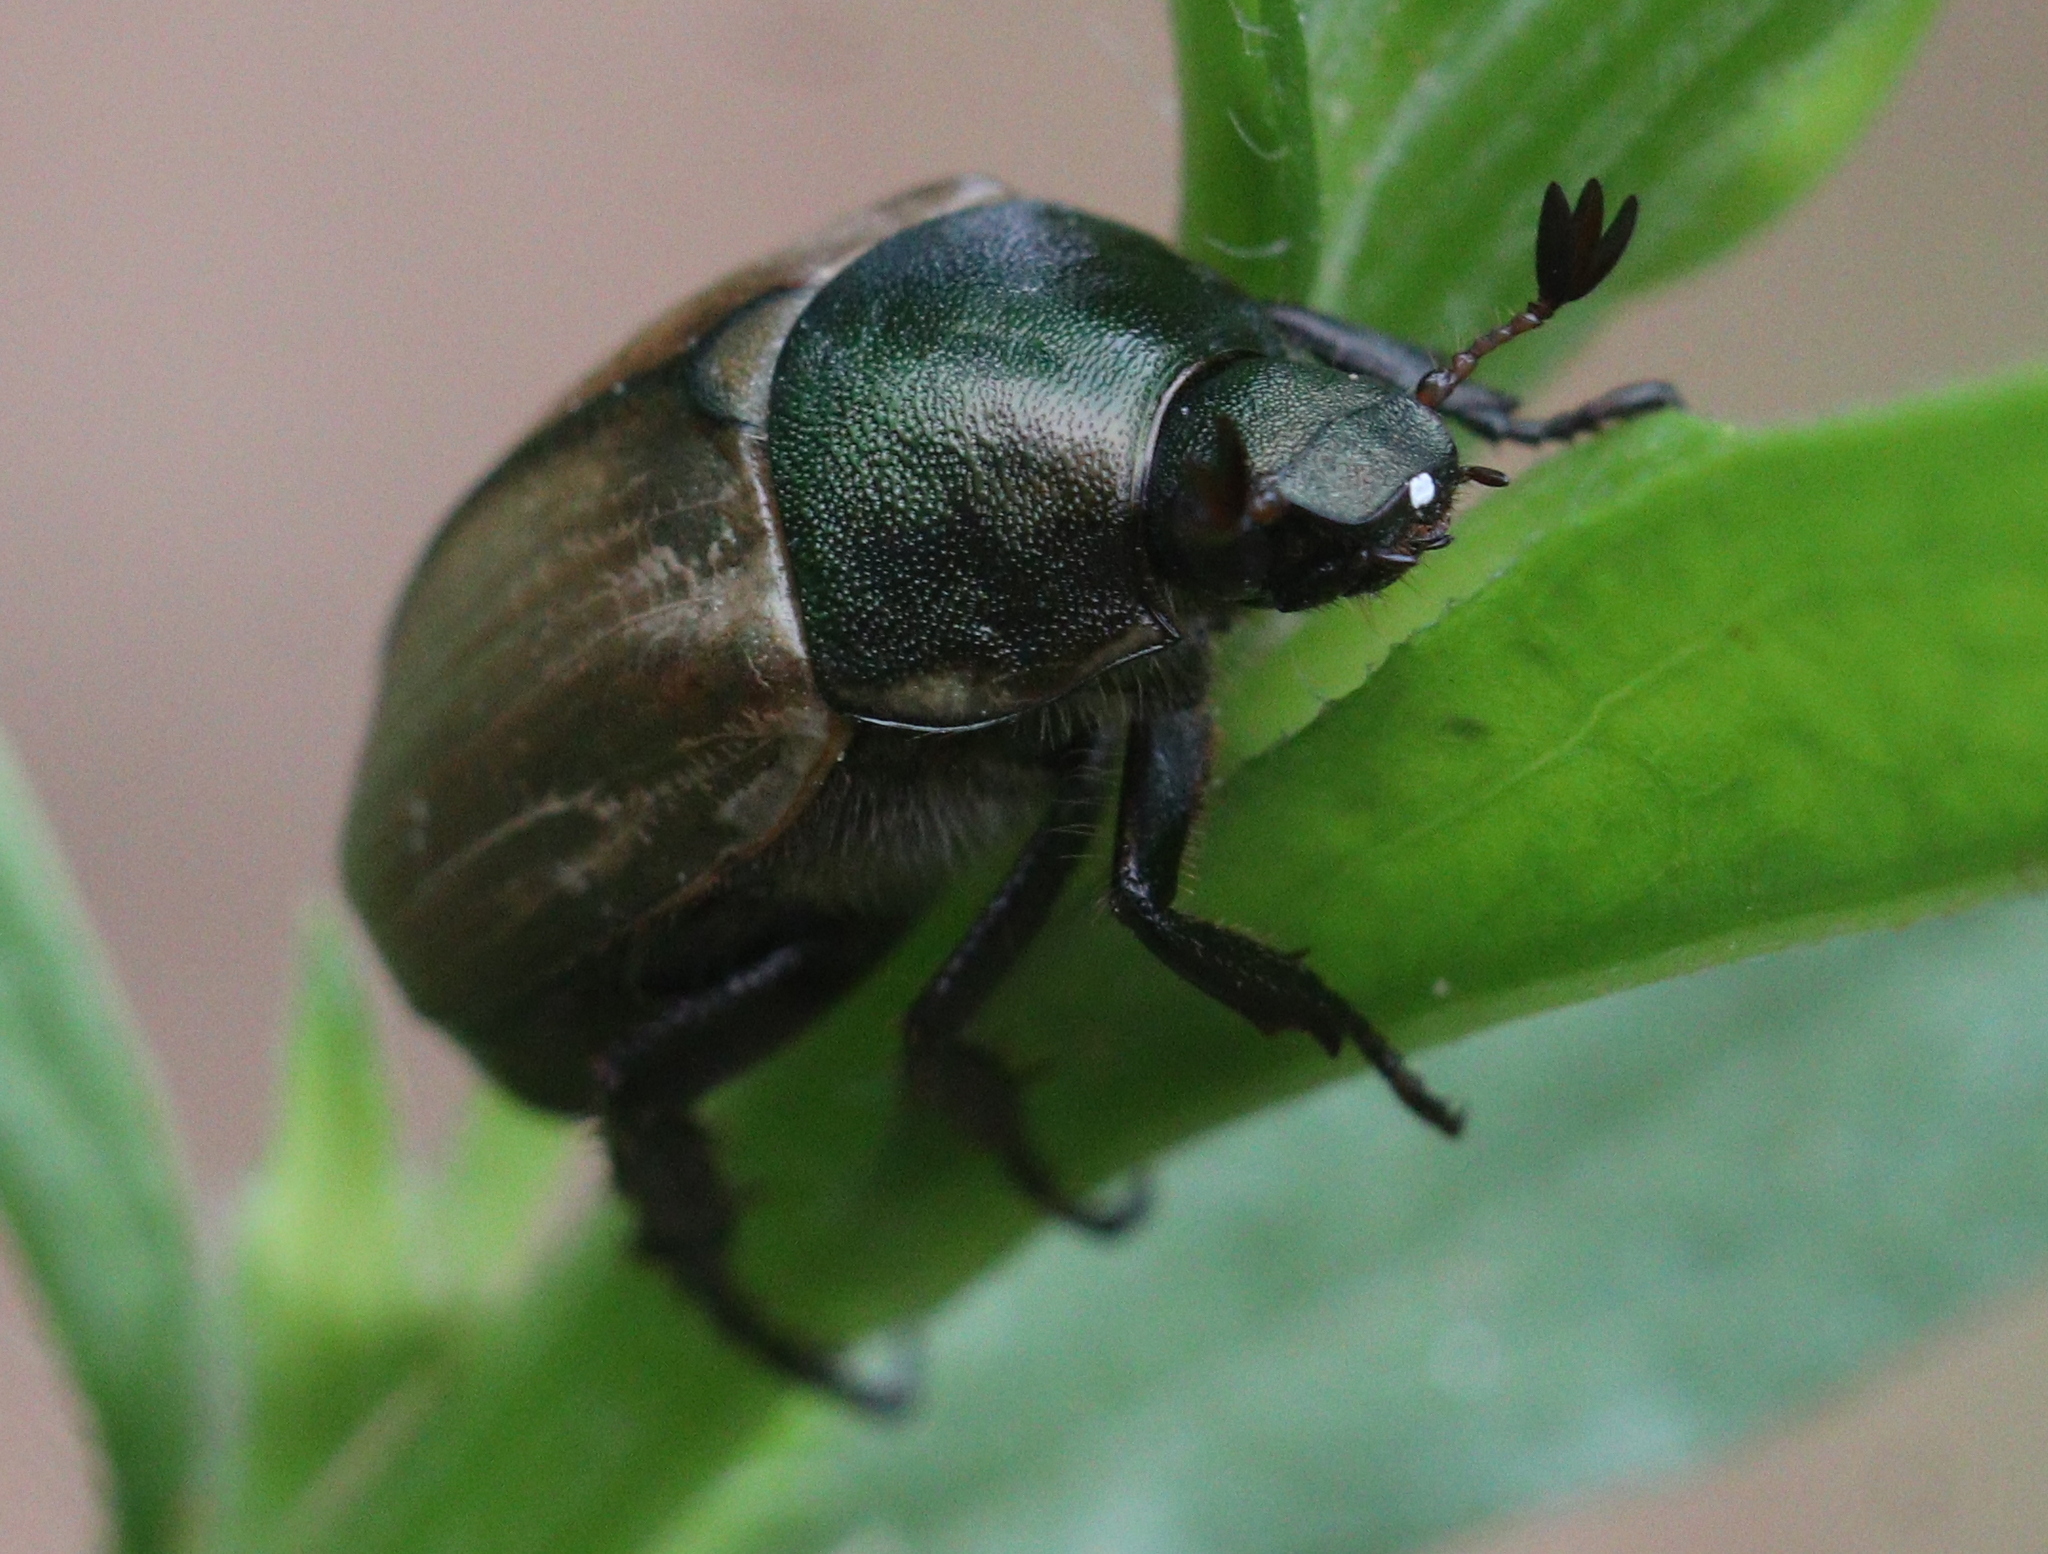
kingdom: Animalia
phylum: Arthropoda
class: Insecta
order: Coleoptera
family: Scarabaeidae
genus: Anomala
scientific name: Anomala dubia
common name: Dune chafer
